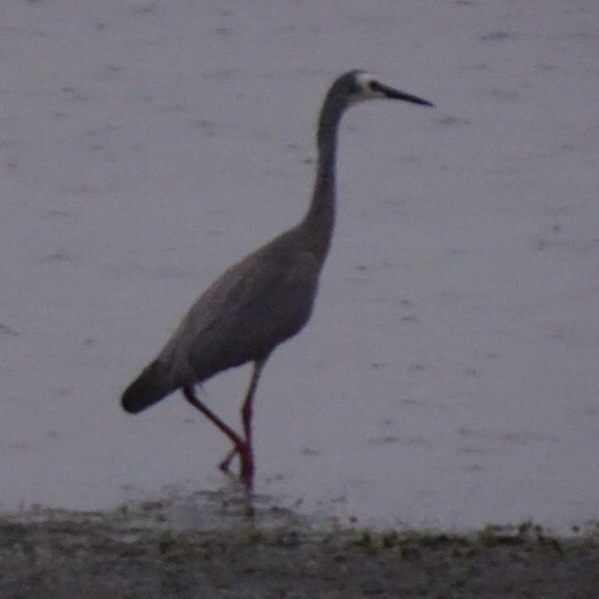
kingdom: Animalia
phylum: Chordata
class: Aves
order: Pelecaniformes
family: Ardeidae
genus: Egretta
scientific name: Egretta novaehollandiae
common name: White-faced heron
